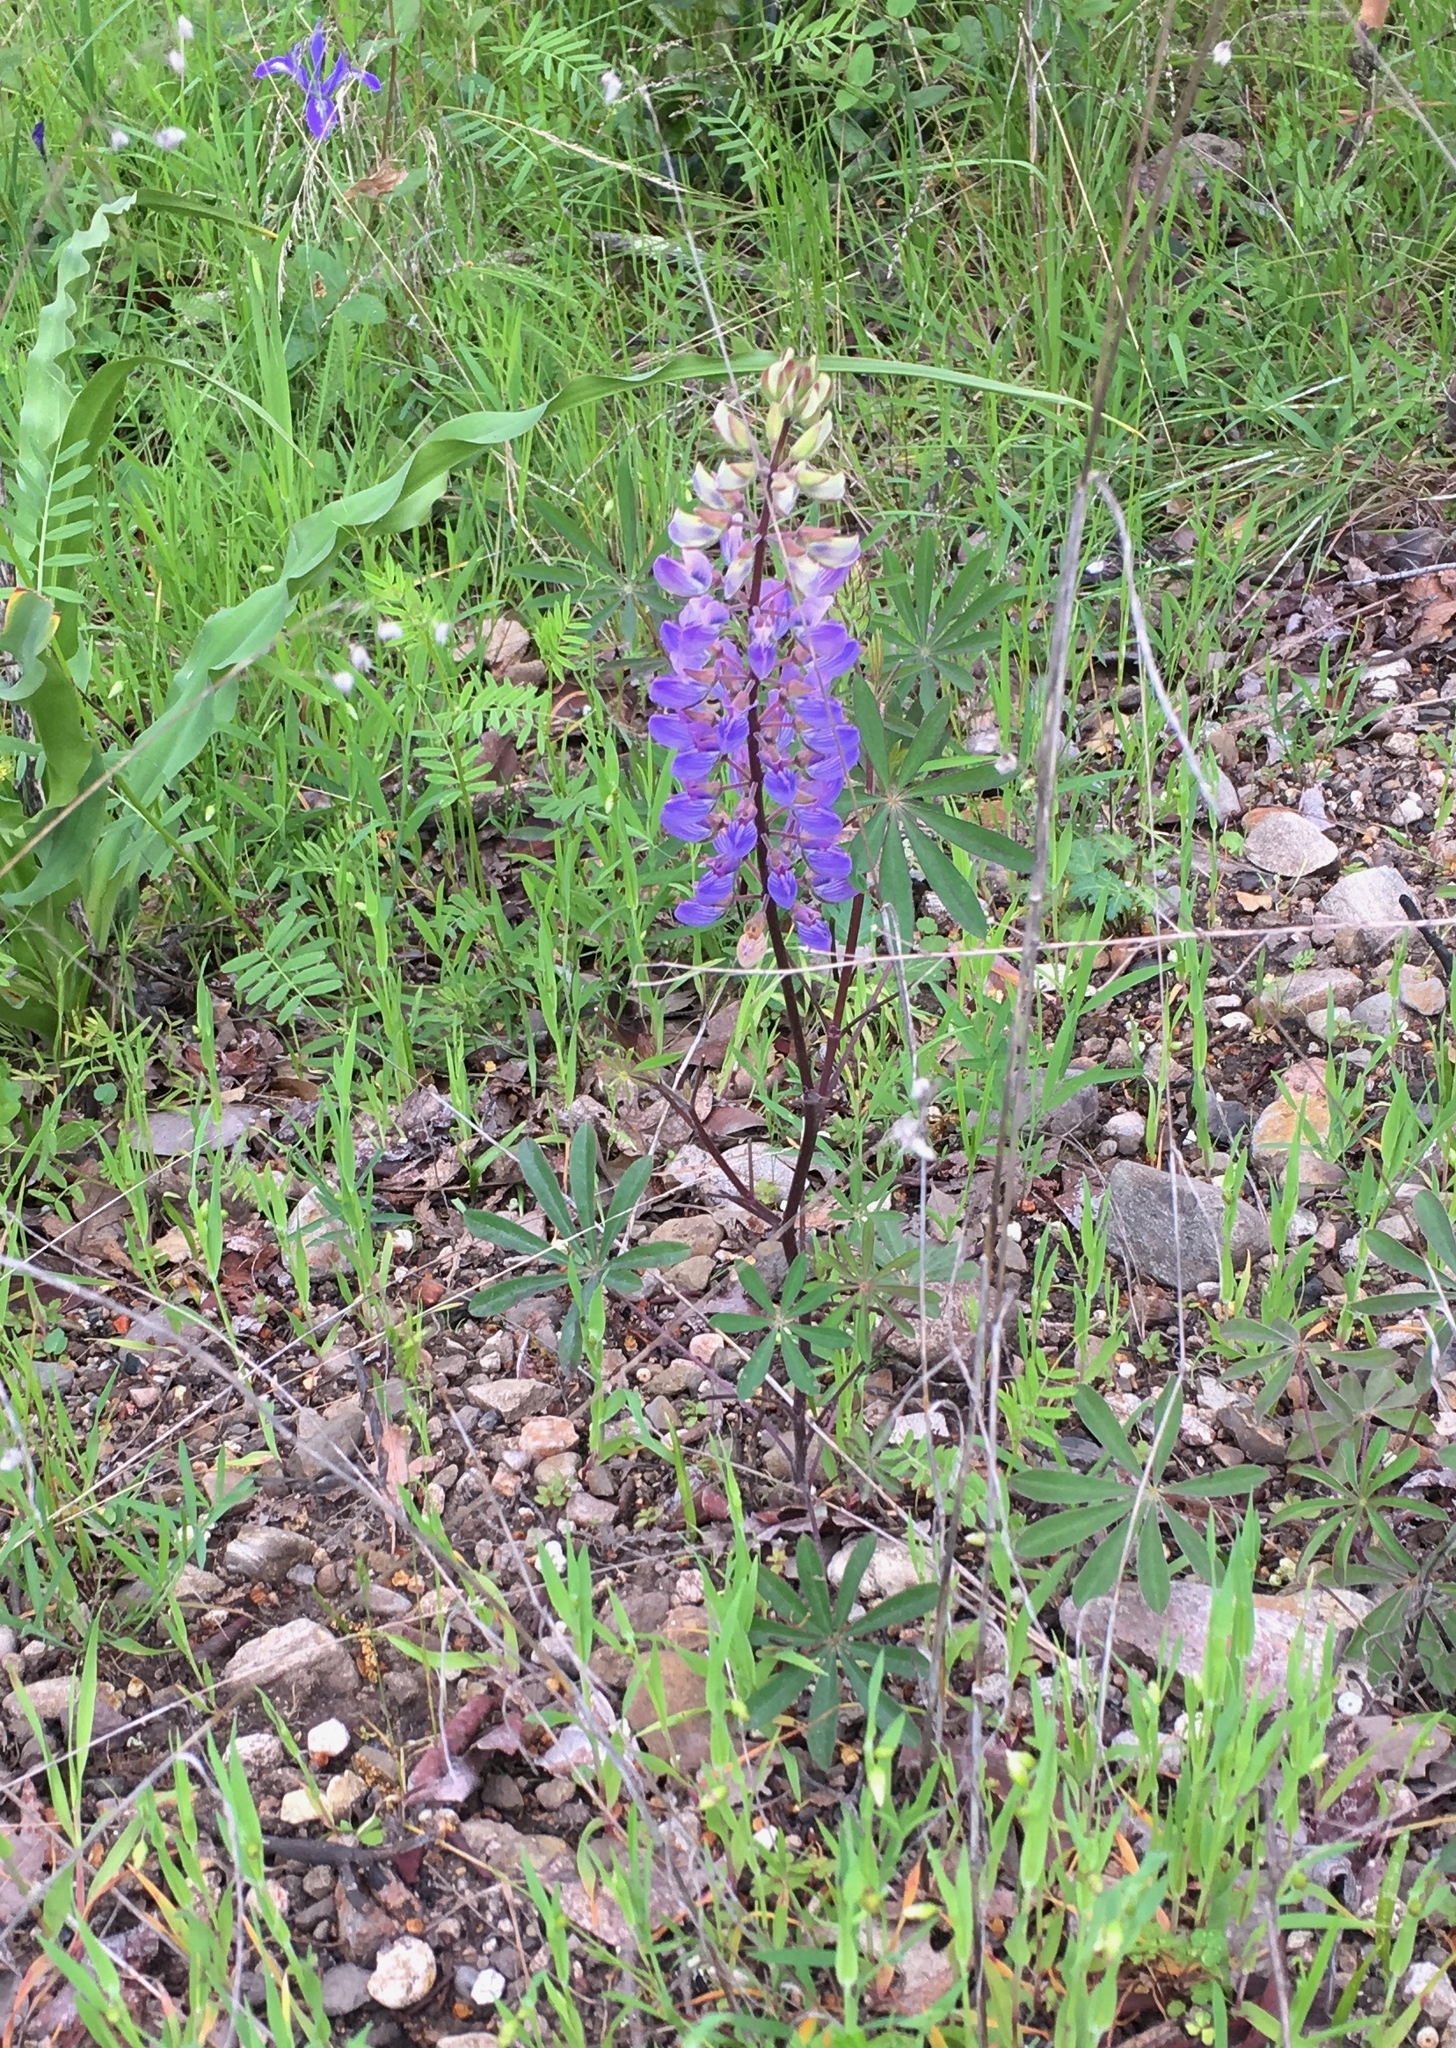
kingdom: Plantae
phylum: Tracheophyta
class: Magnoliopsida
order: Fabales
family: Fabaceae
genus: Lupinus
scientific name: Lupinus succulentus
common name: Arroyo lupine
